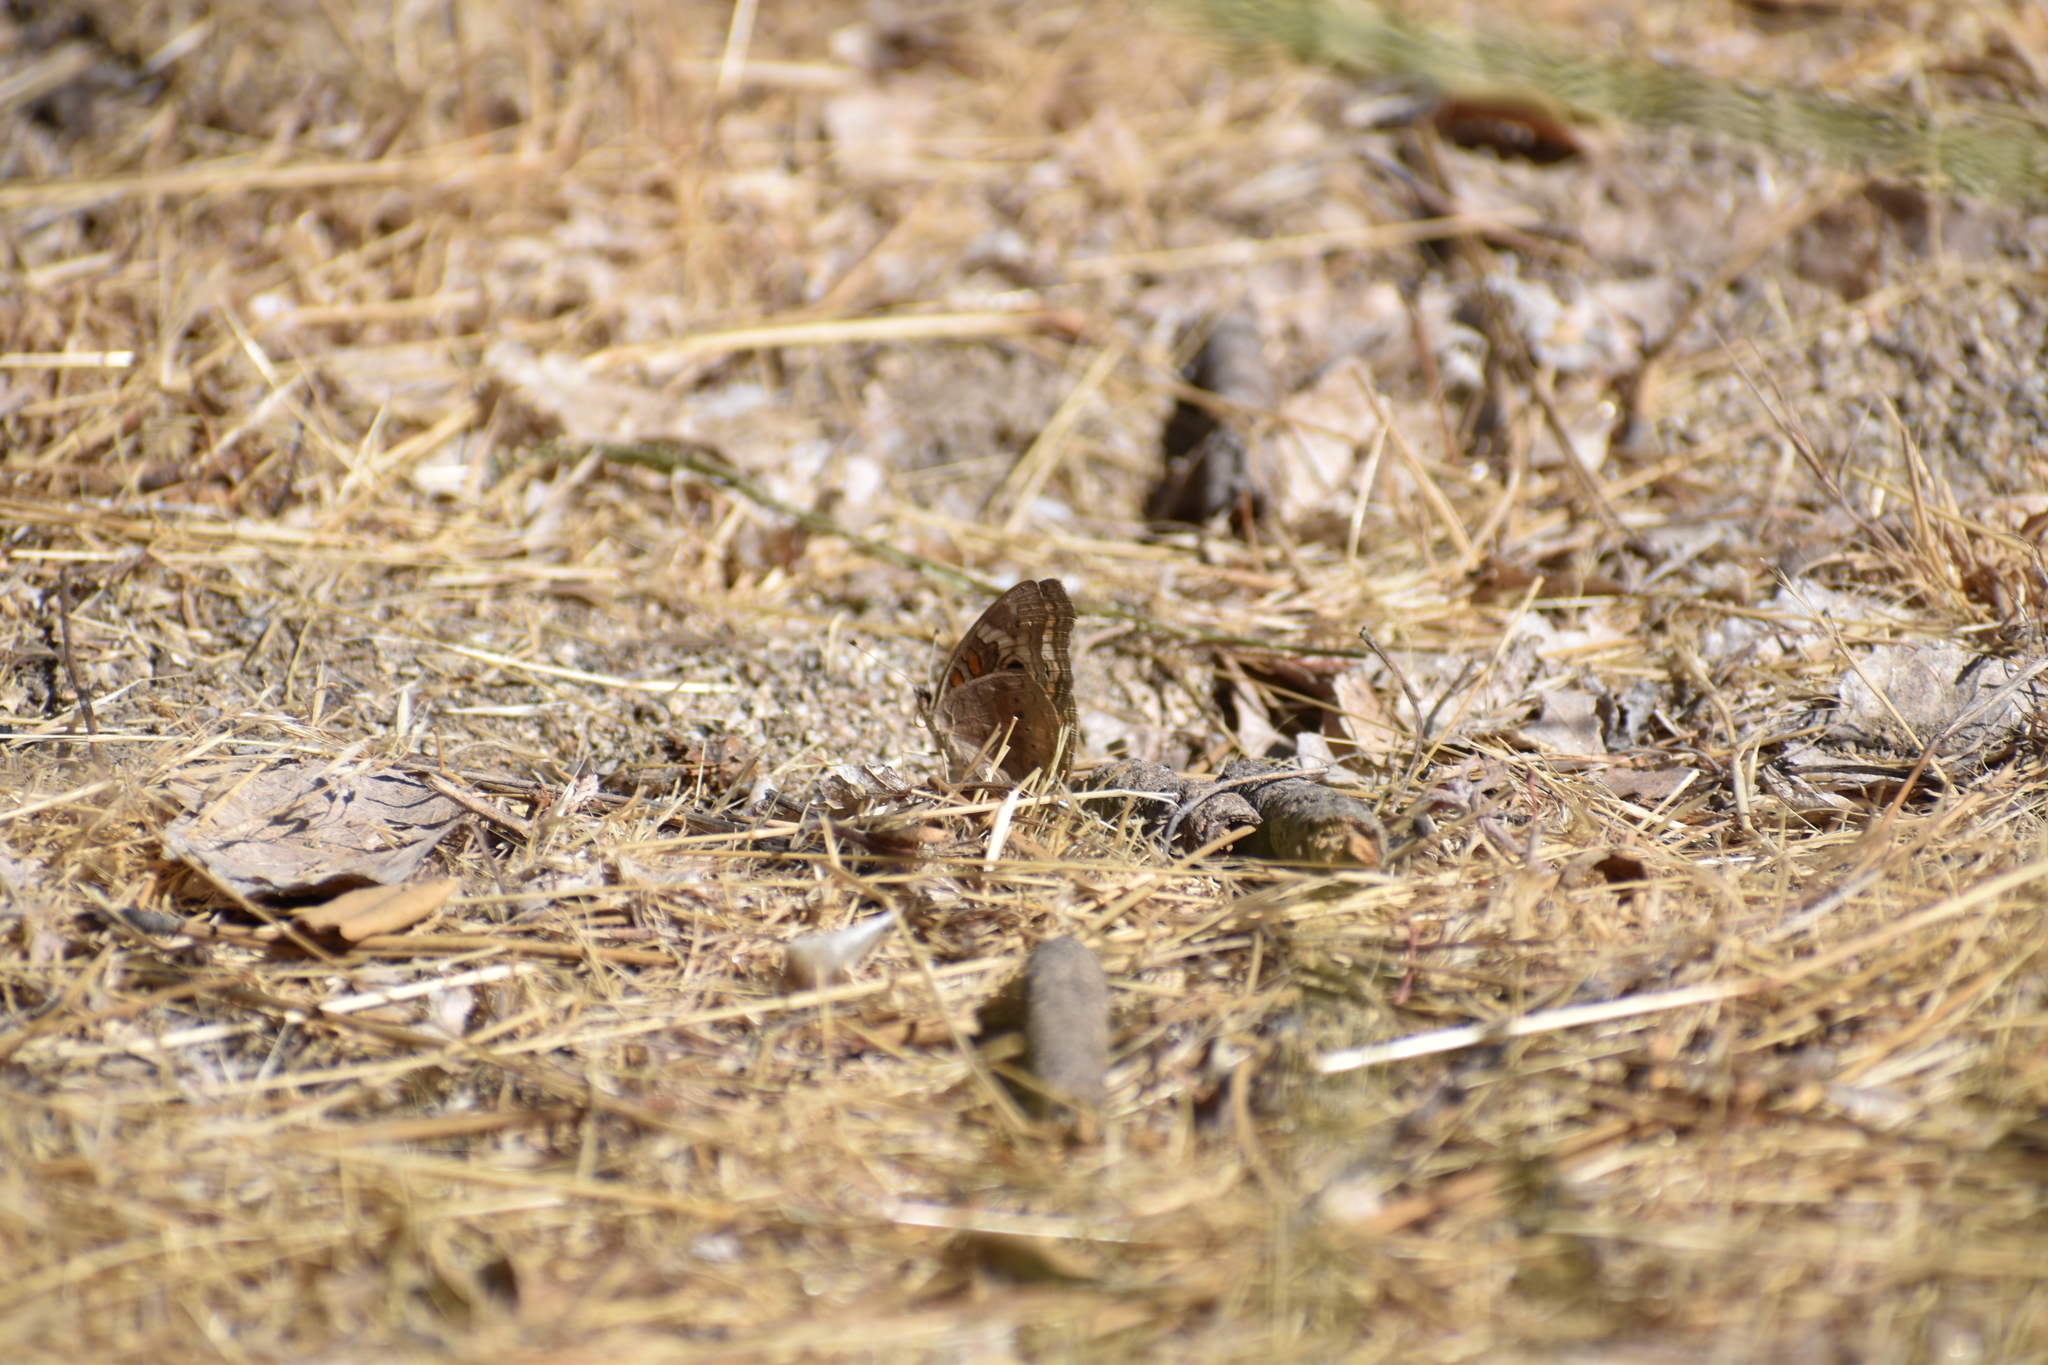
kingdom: Animalia
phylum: Arthropoda
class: Insecta
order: Lepidoptera
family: Nymphalidae
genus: Junonia
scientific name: Junonia grisea
